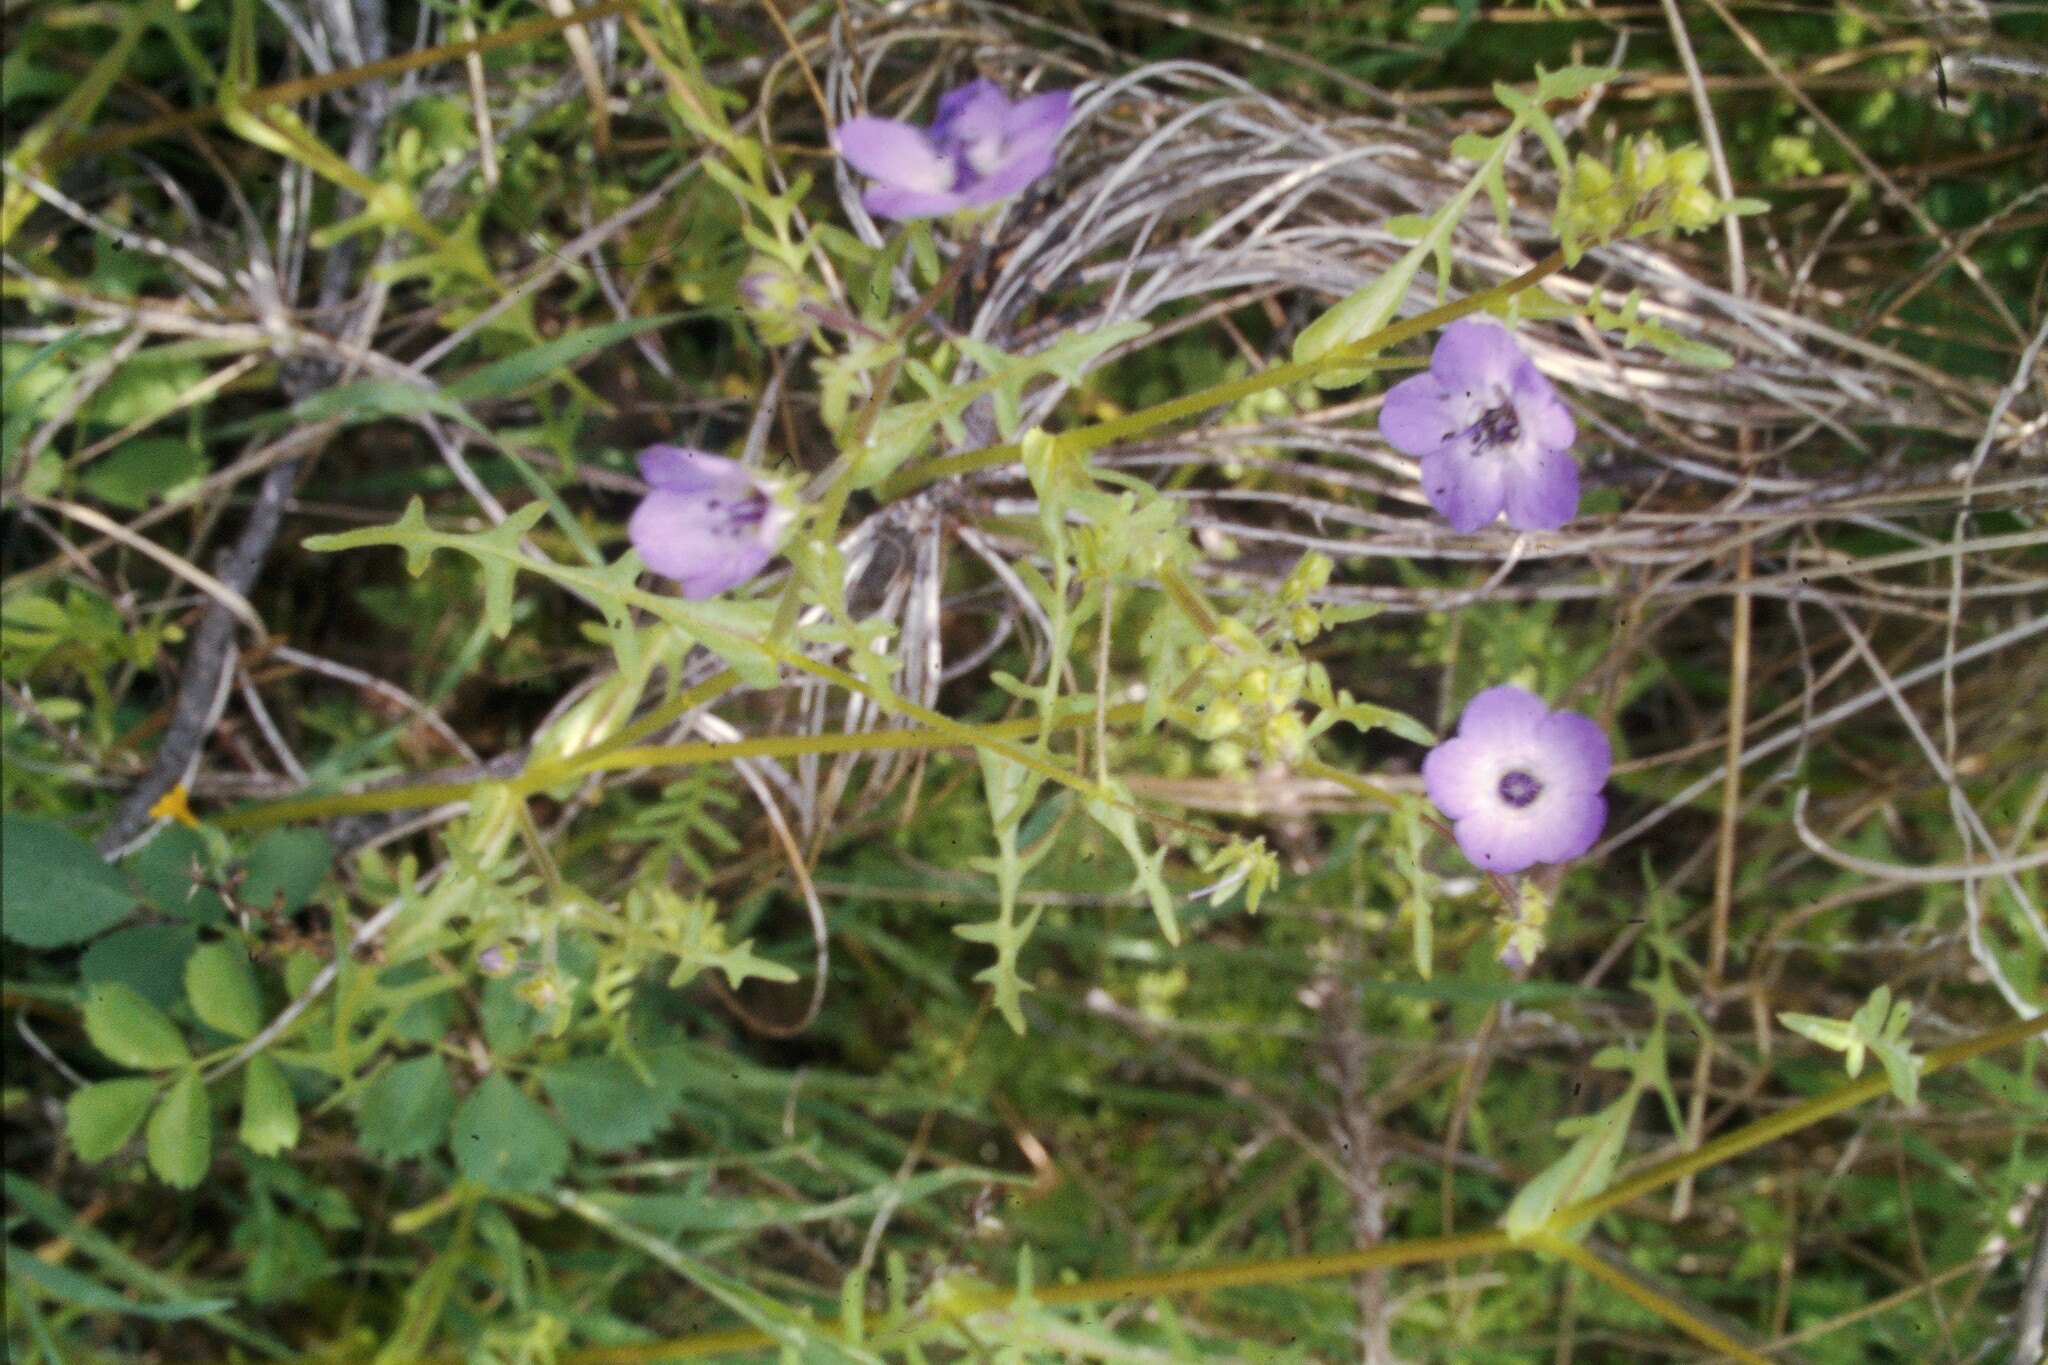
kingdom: Plantae
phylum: Tracheophyta
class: Magnoliopsida
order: Boraginales
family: Hydrophyllaceae
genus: Pholistoma
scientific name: Pholistoma auritum
